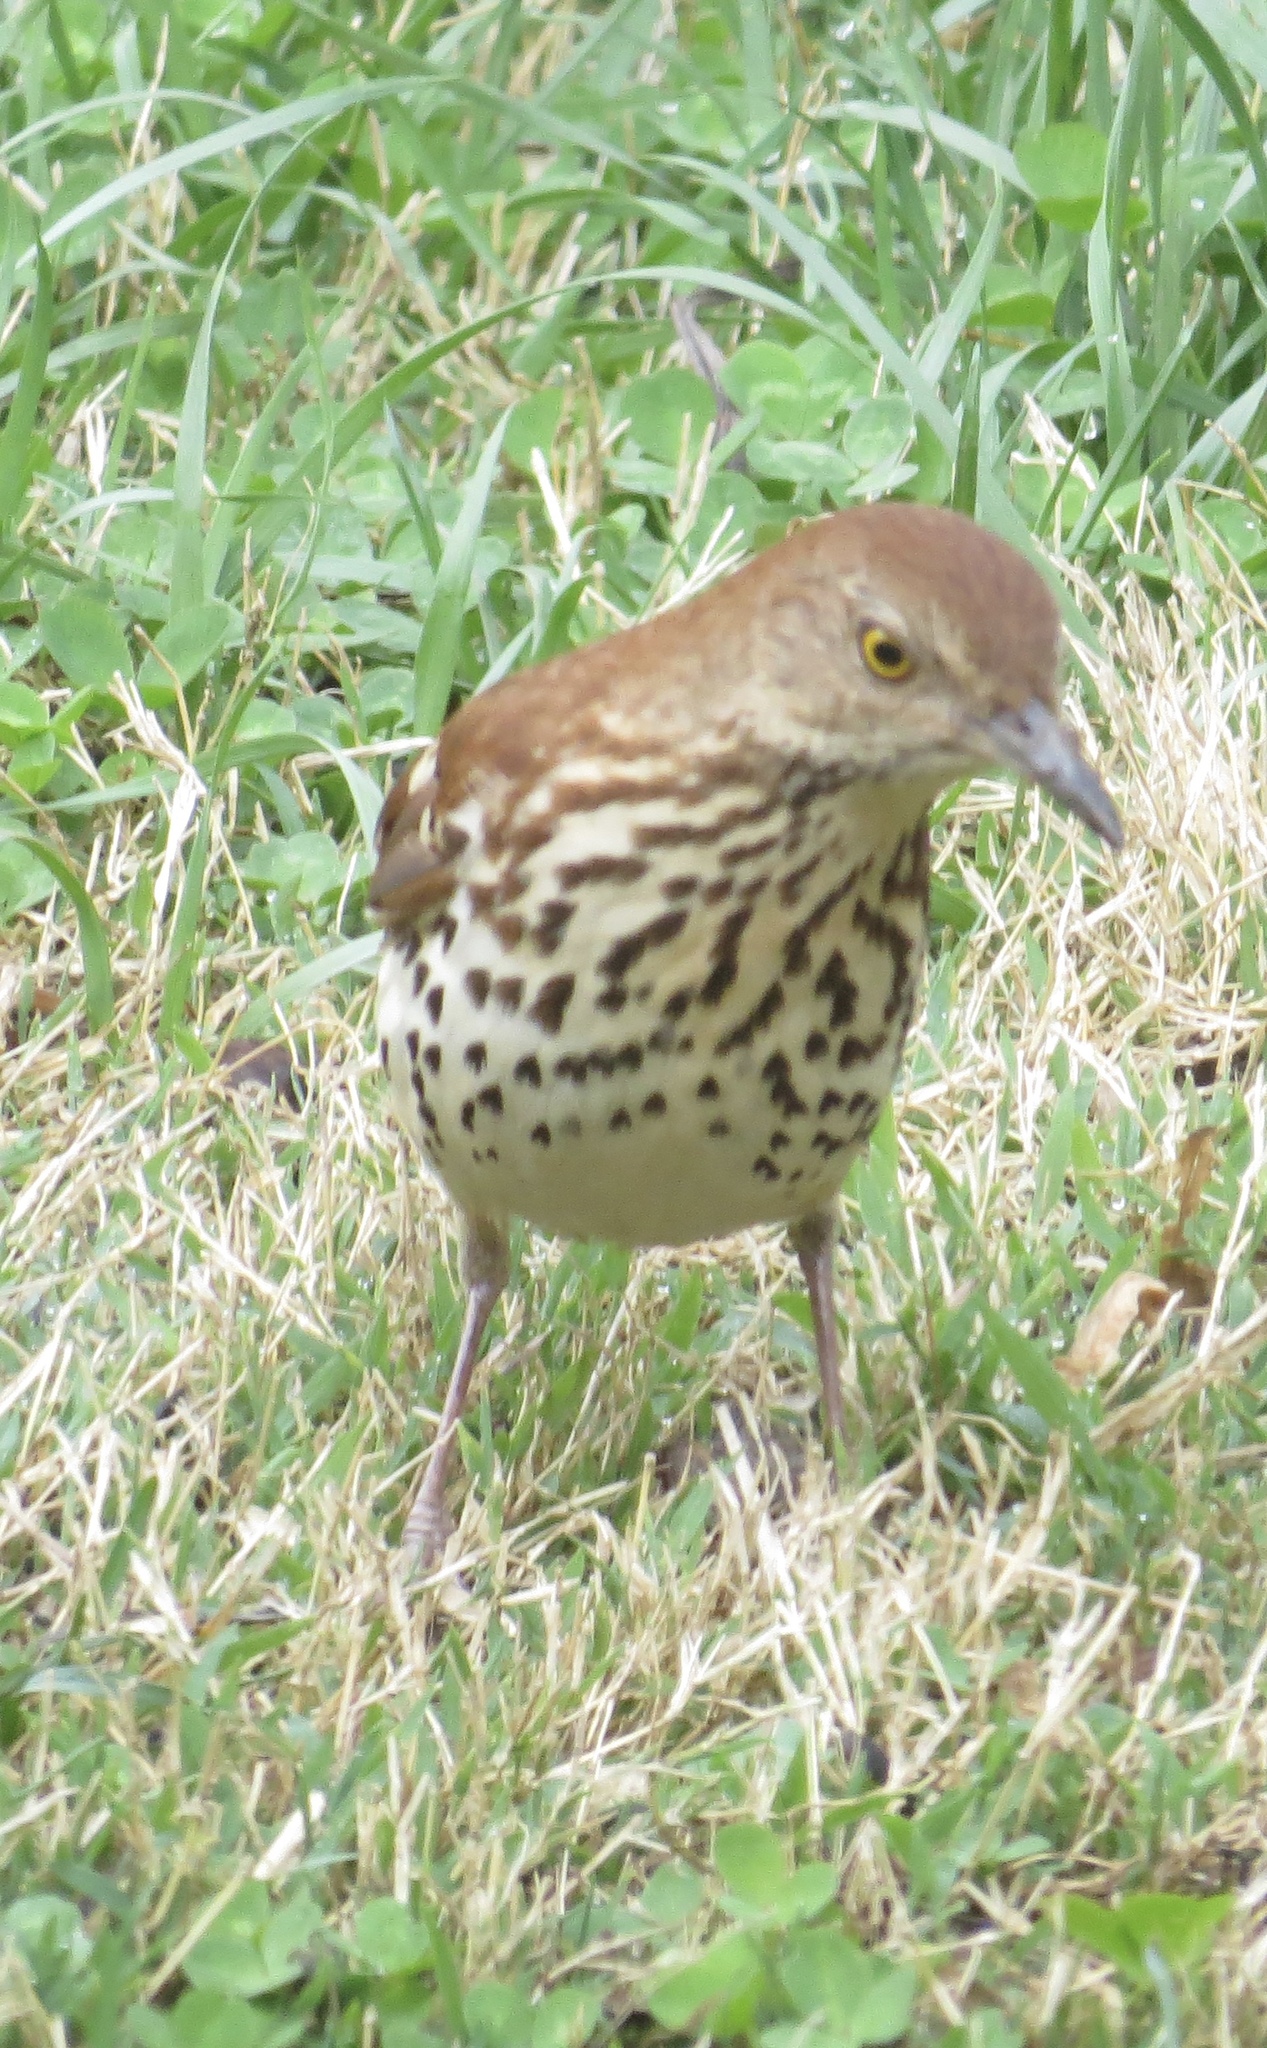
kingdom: Animalia
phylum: Chordata
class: Aves
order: Passeriformes
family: Mimidae
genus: Toxostoma
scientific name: Toxostoma rufum
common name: Brown thrasher
